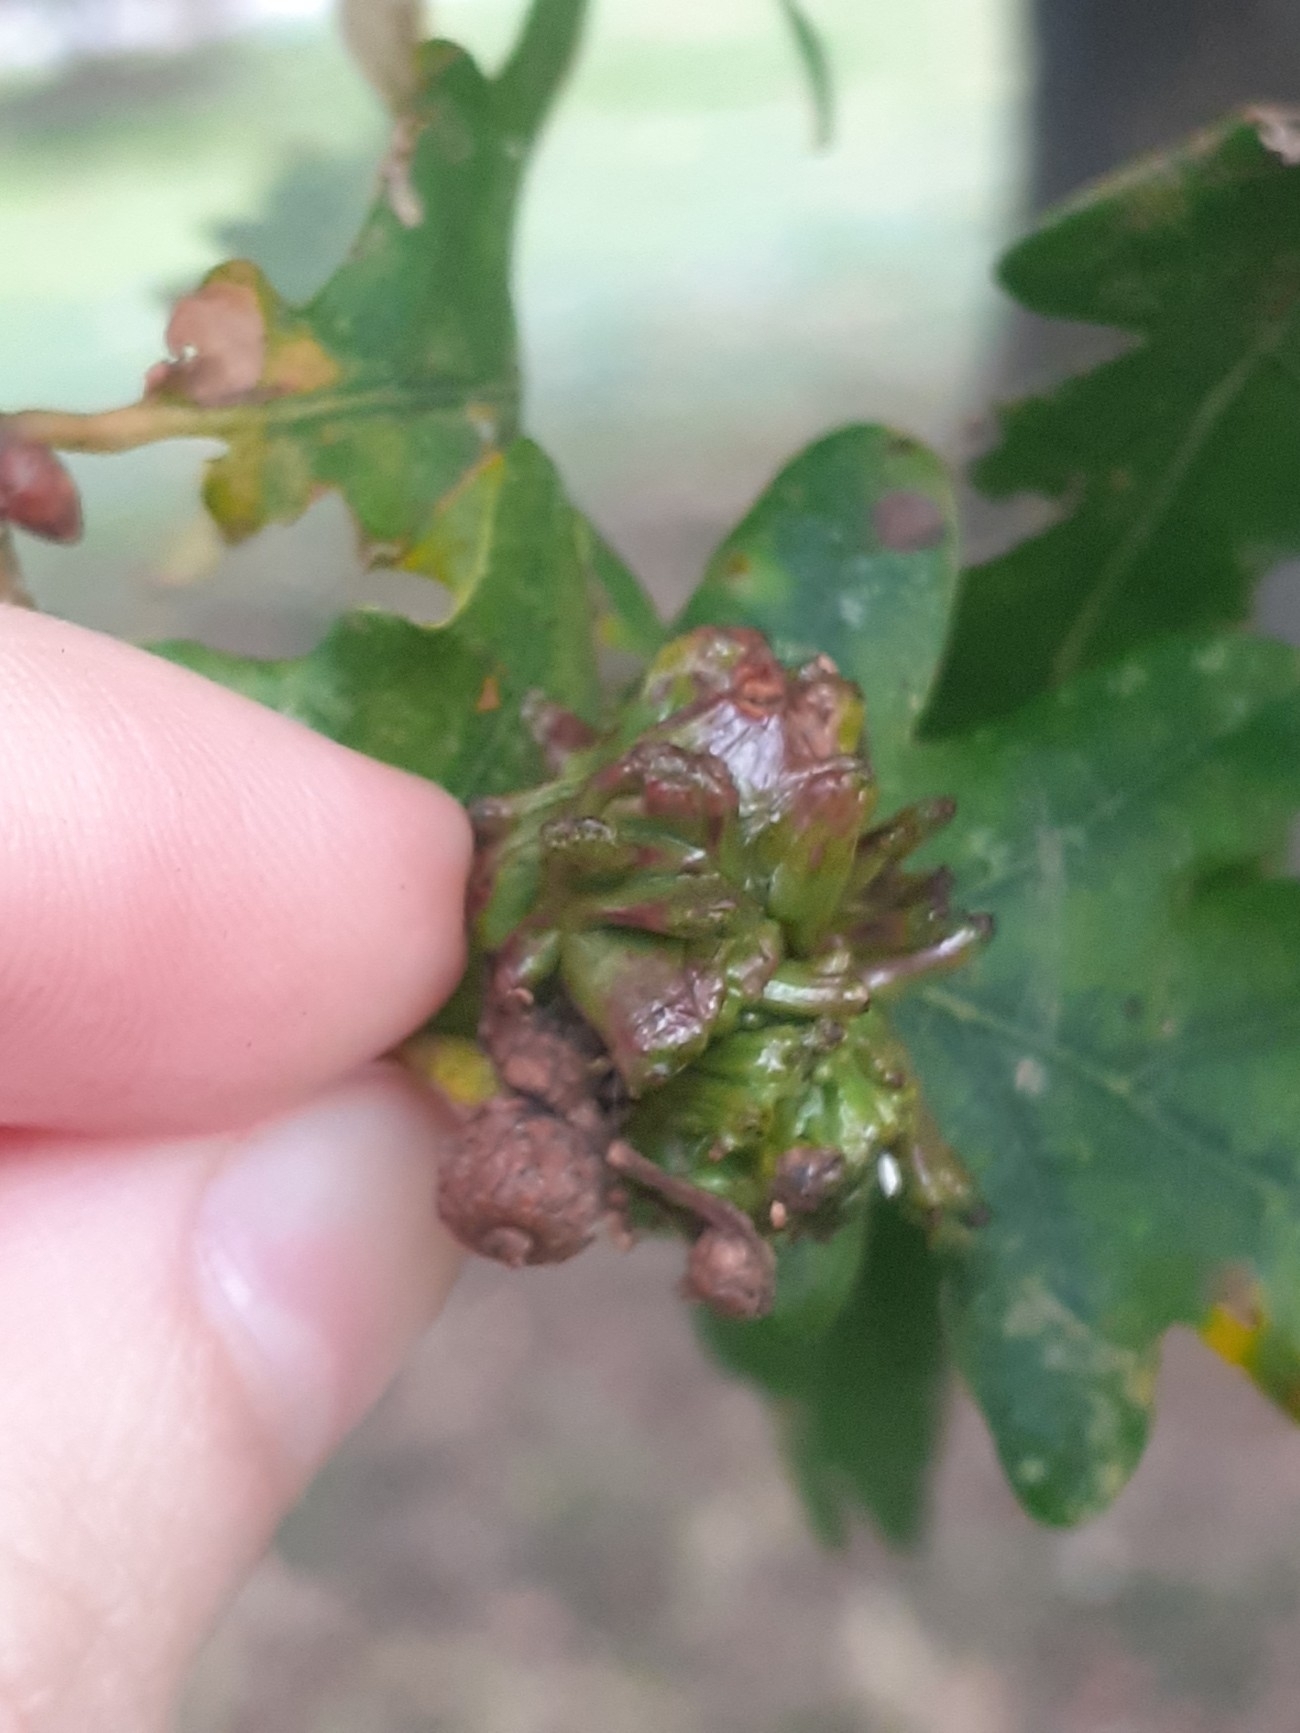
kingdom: Animalia
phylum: Arthropoda
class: Insecta
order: Hymenoptera
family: Cynipidae
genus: Andricus
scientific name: Andricus grossulariae
